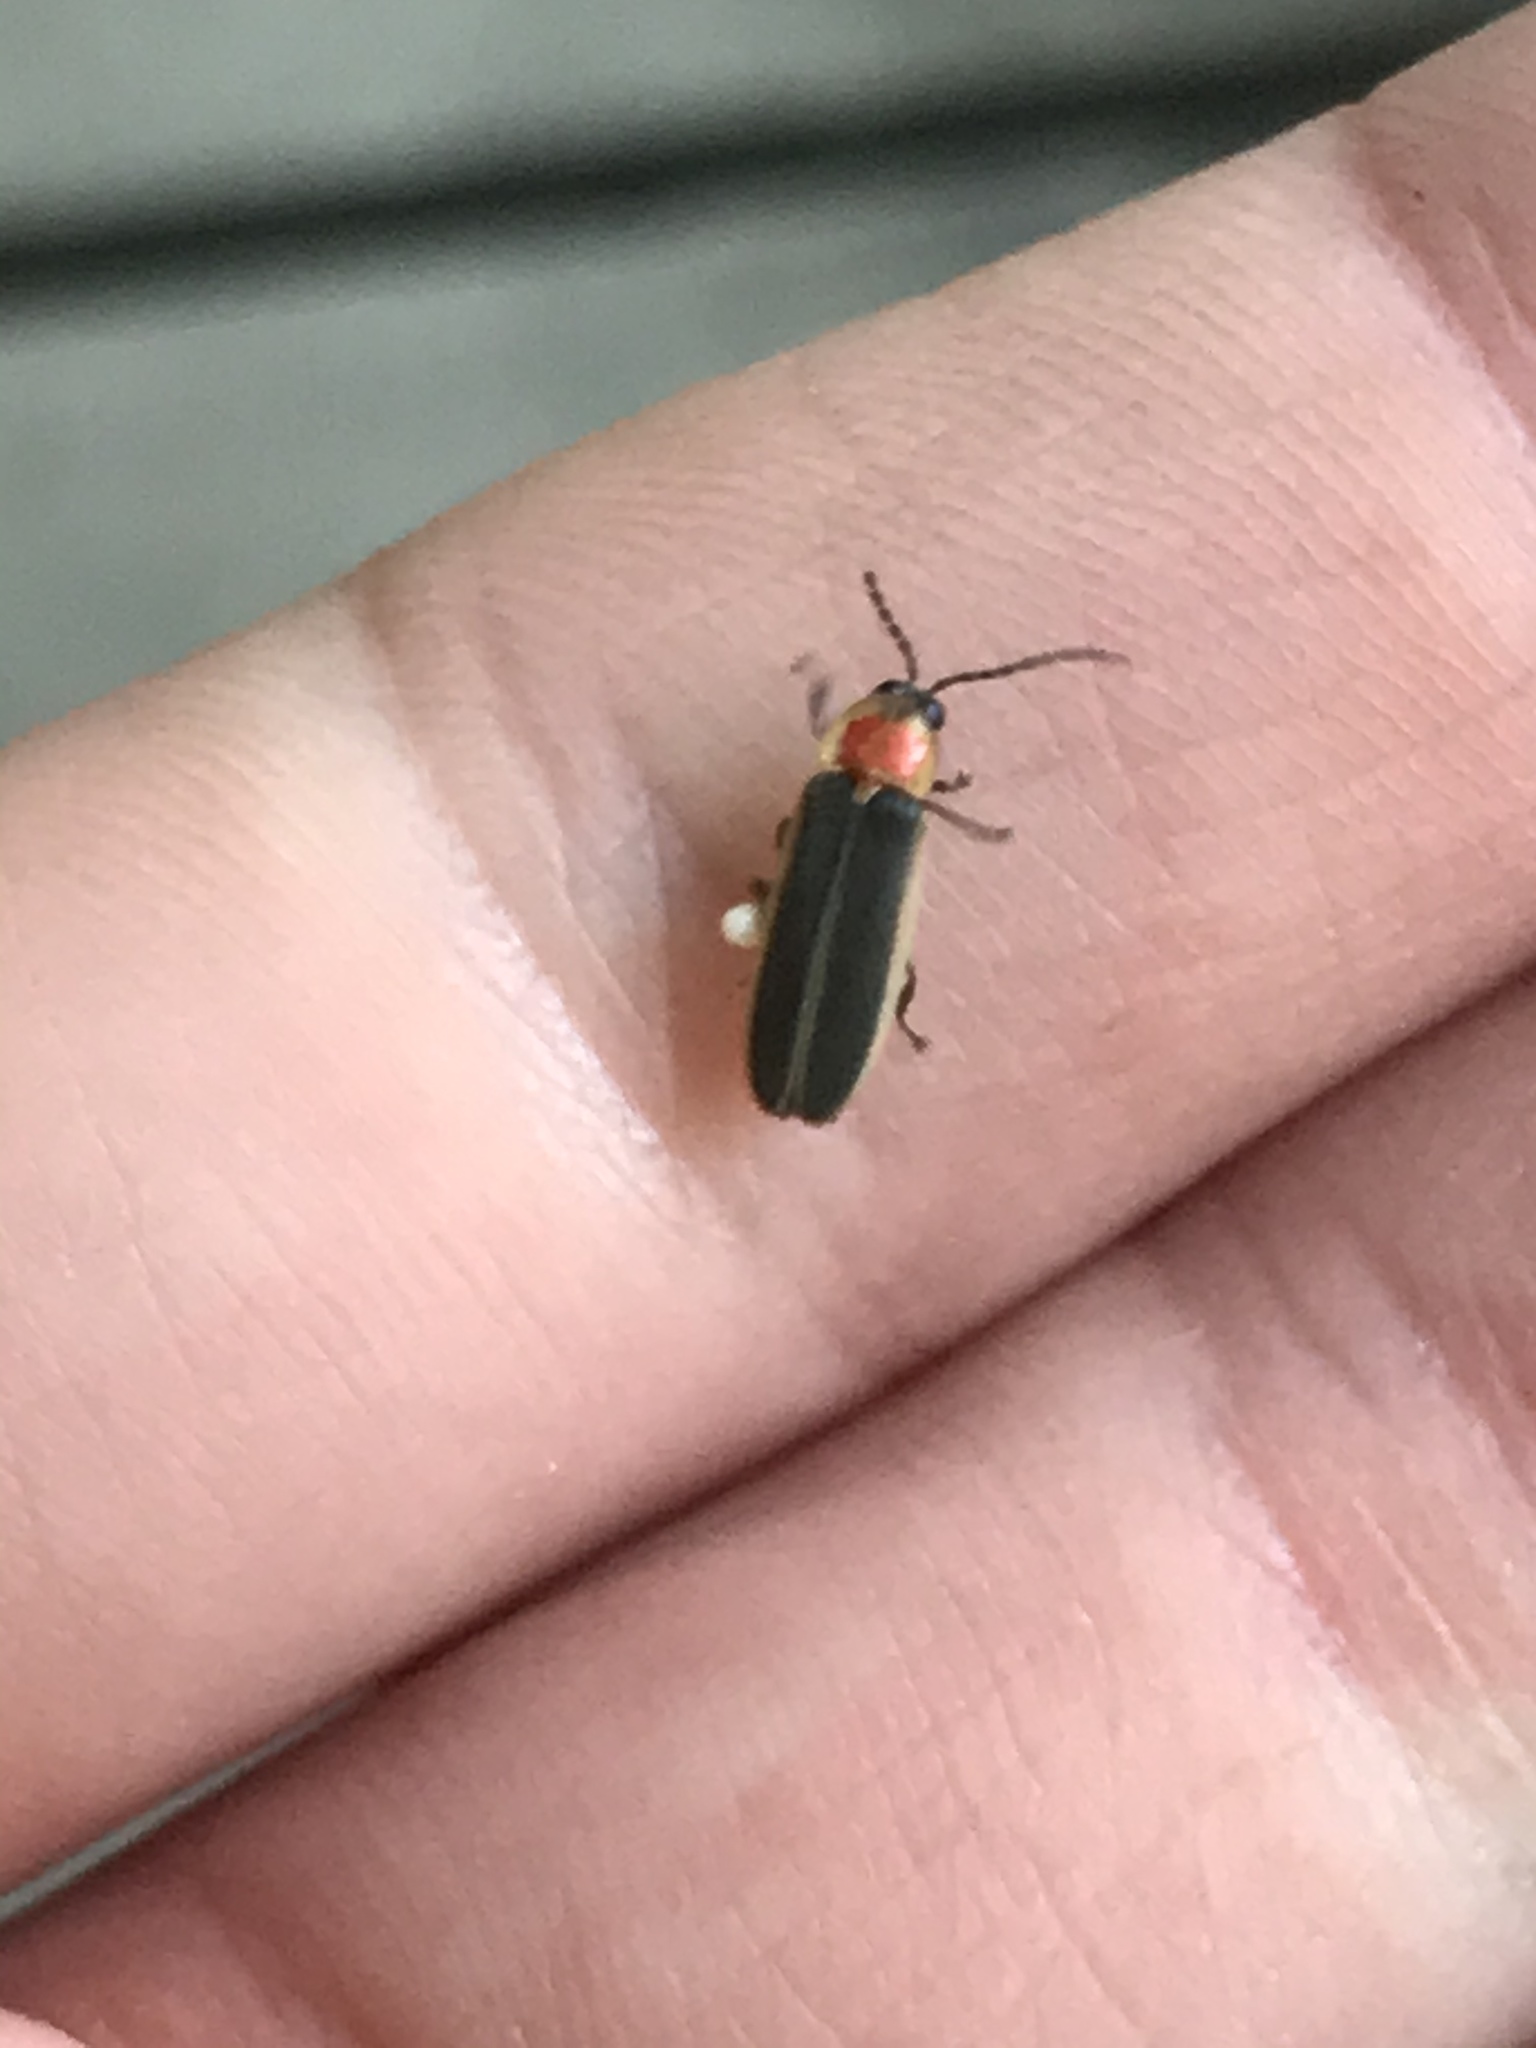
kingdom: Animalia
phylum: Arthropoda
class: Insecta
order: Coleoptera
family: Lampyridae
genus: Photinus
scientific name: Photinus pyralis
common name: Big dipper firefly
